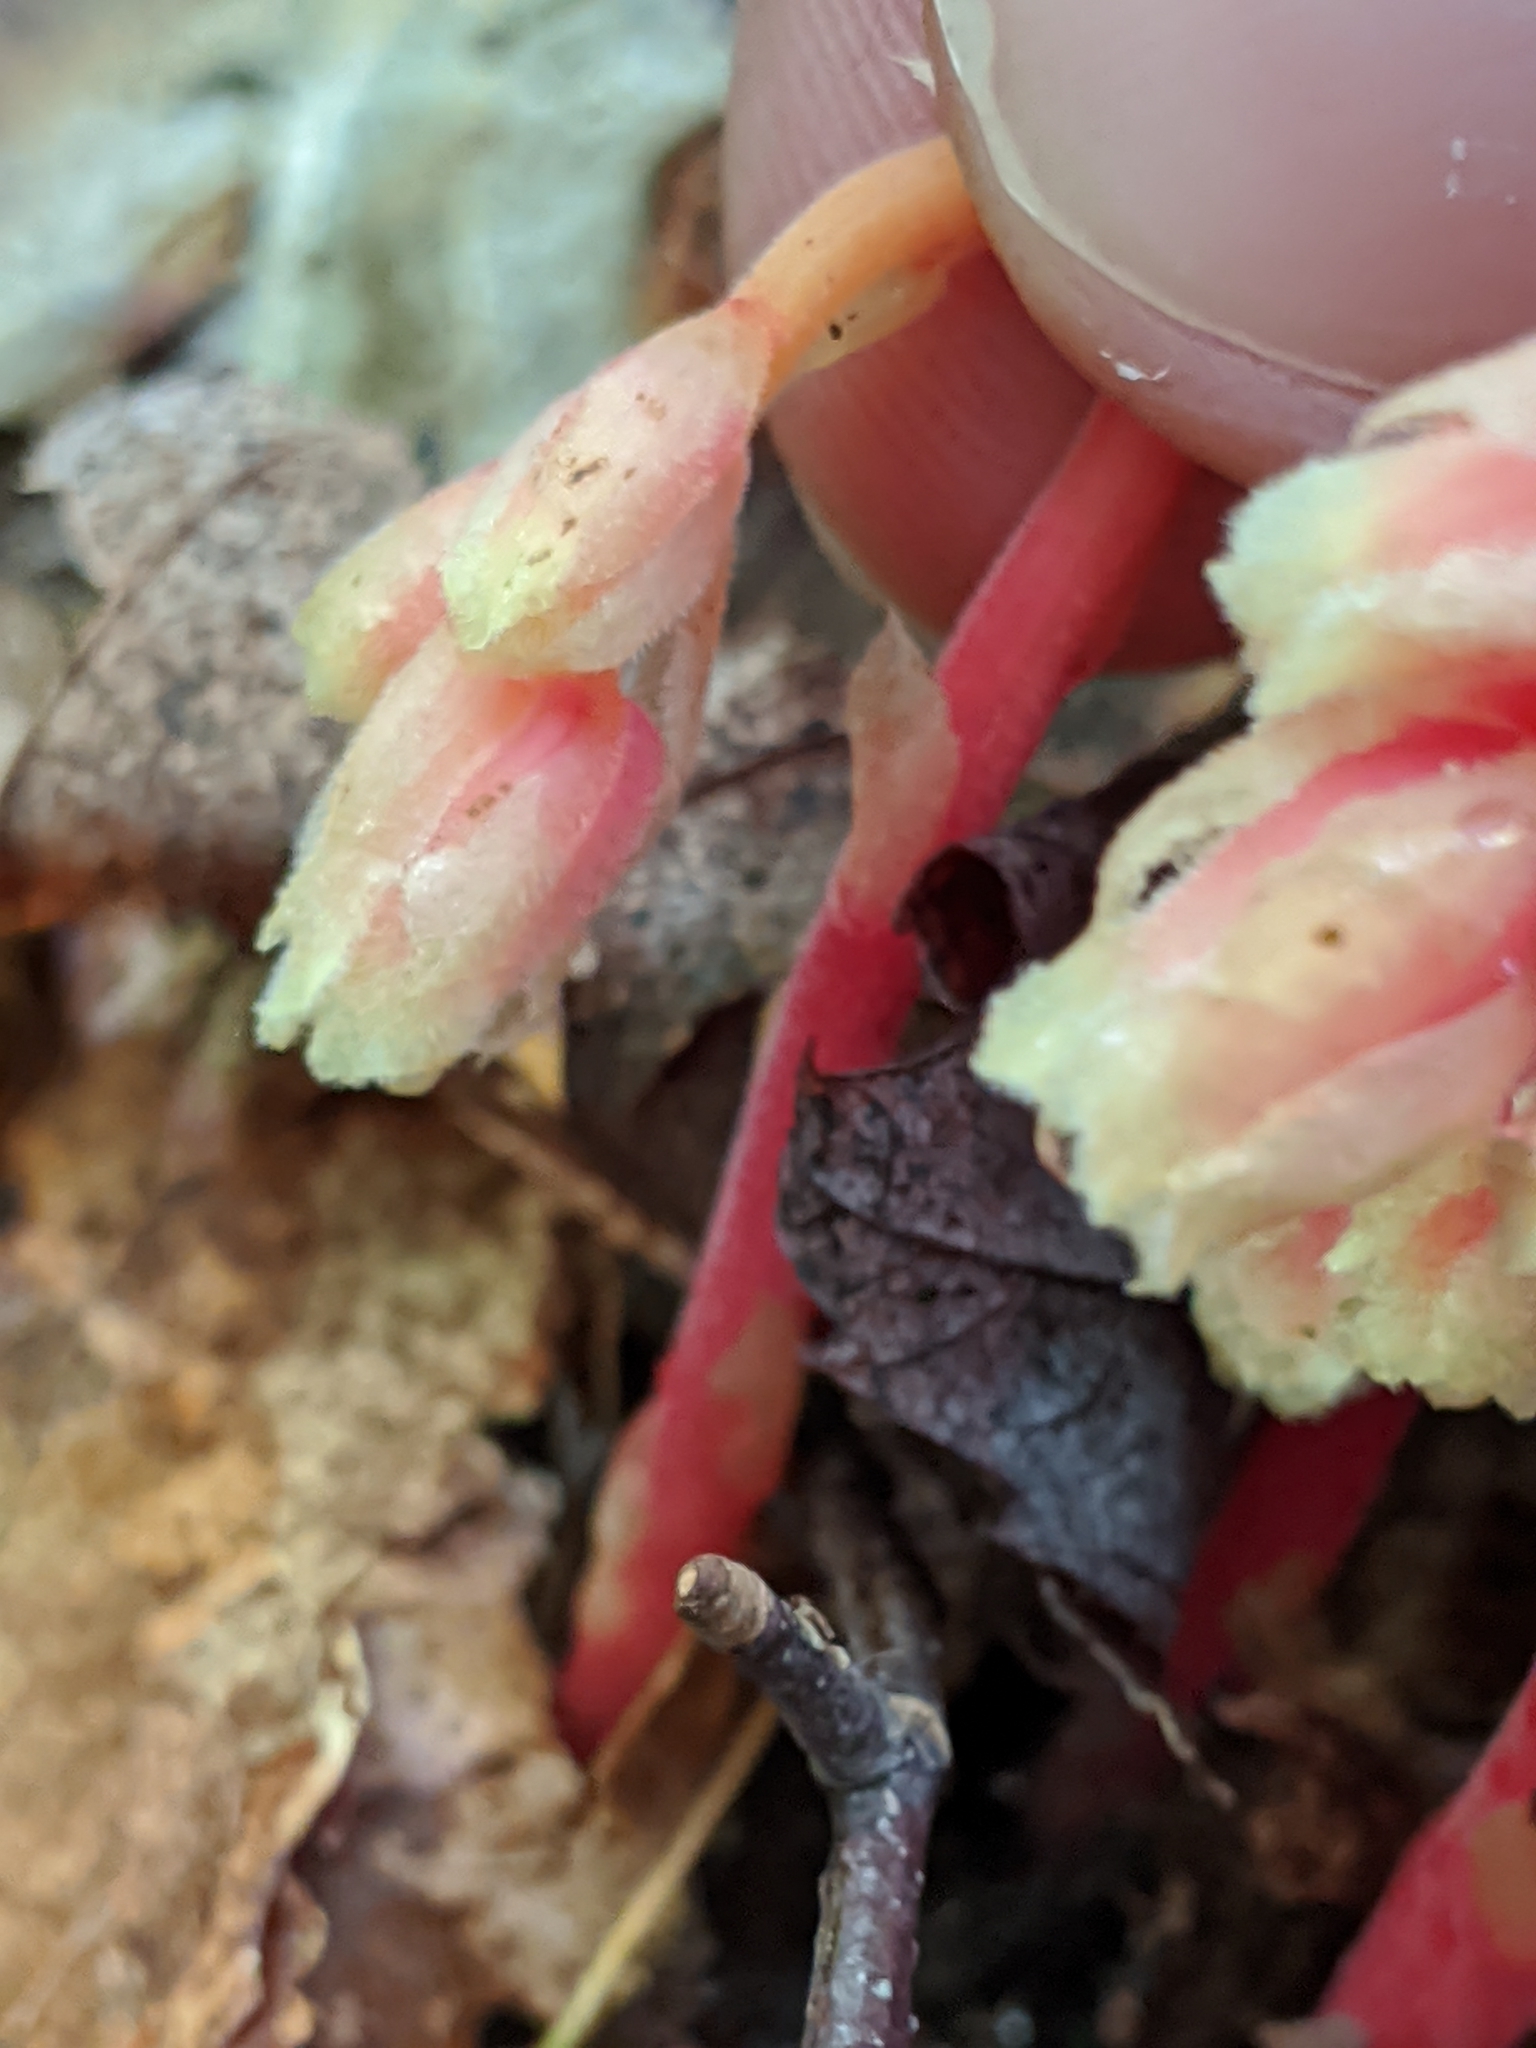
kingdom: Plantae
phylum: Tracheophyta
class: Magnoliopsida
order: Ericales
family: Ericaceae
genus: Hypopitys
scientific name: Hypopitys monotropa
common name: Yellow bird's-nest
